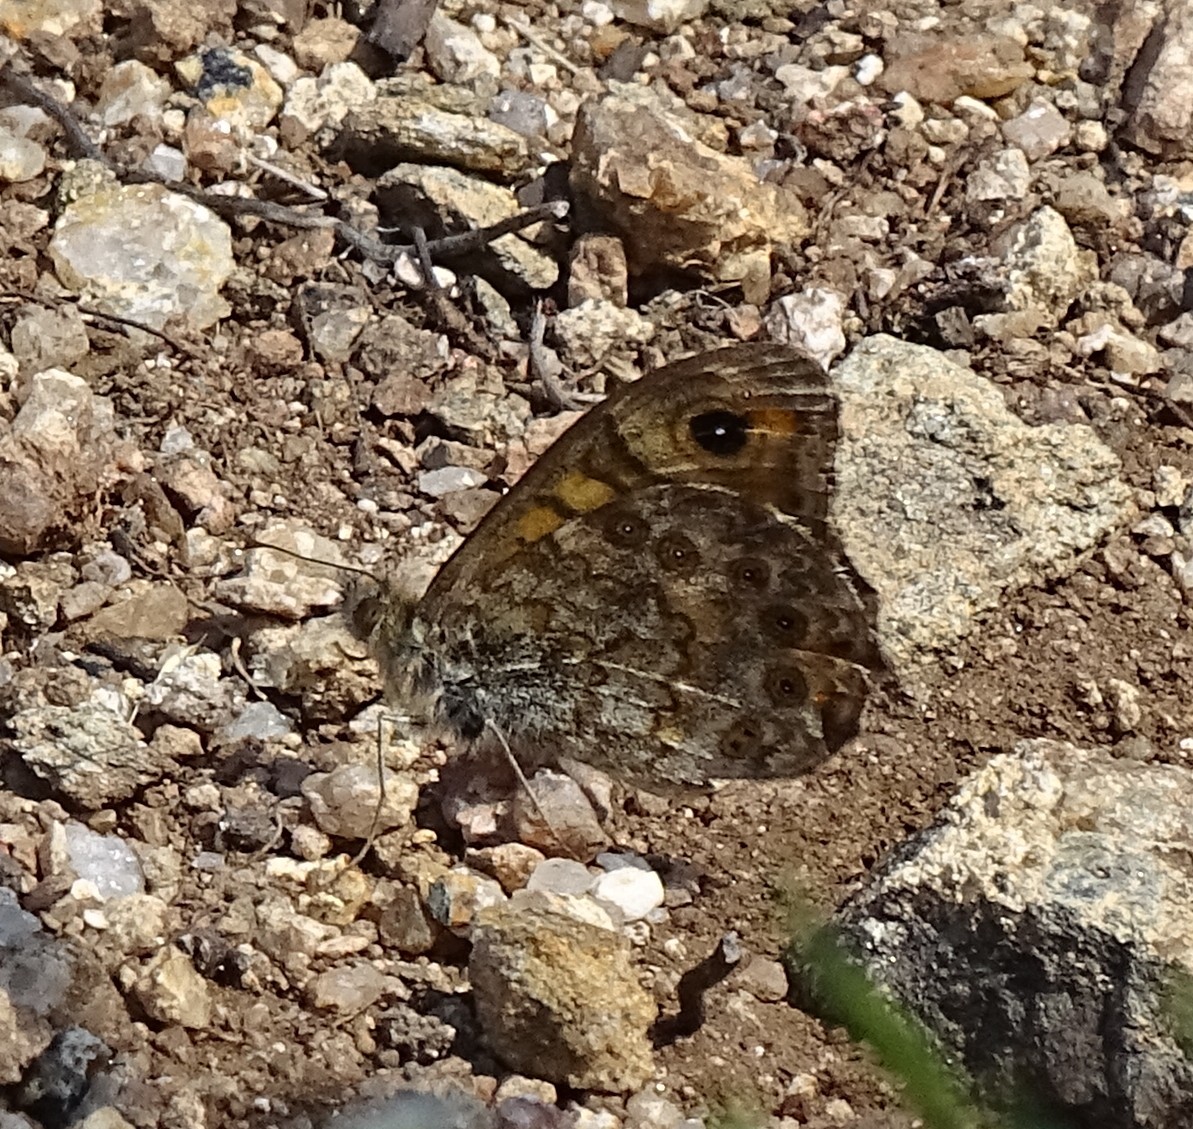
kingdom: Animalia
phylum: Arthropoda
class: Insecta
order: Lepidoptera
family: Nymphalidae
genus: Pararge
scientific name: Pararge Lasiommata megera
